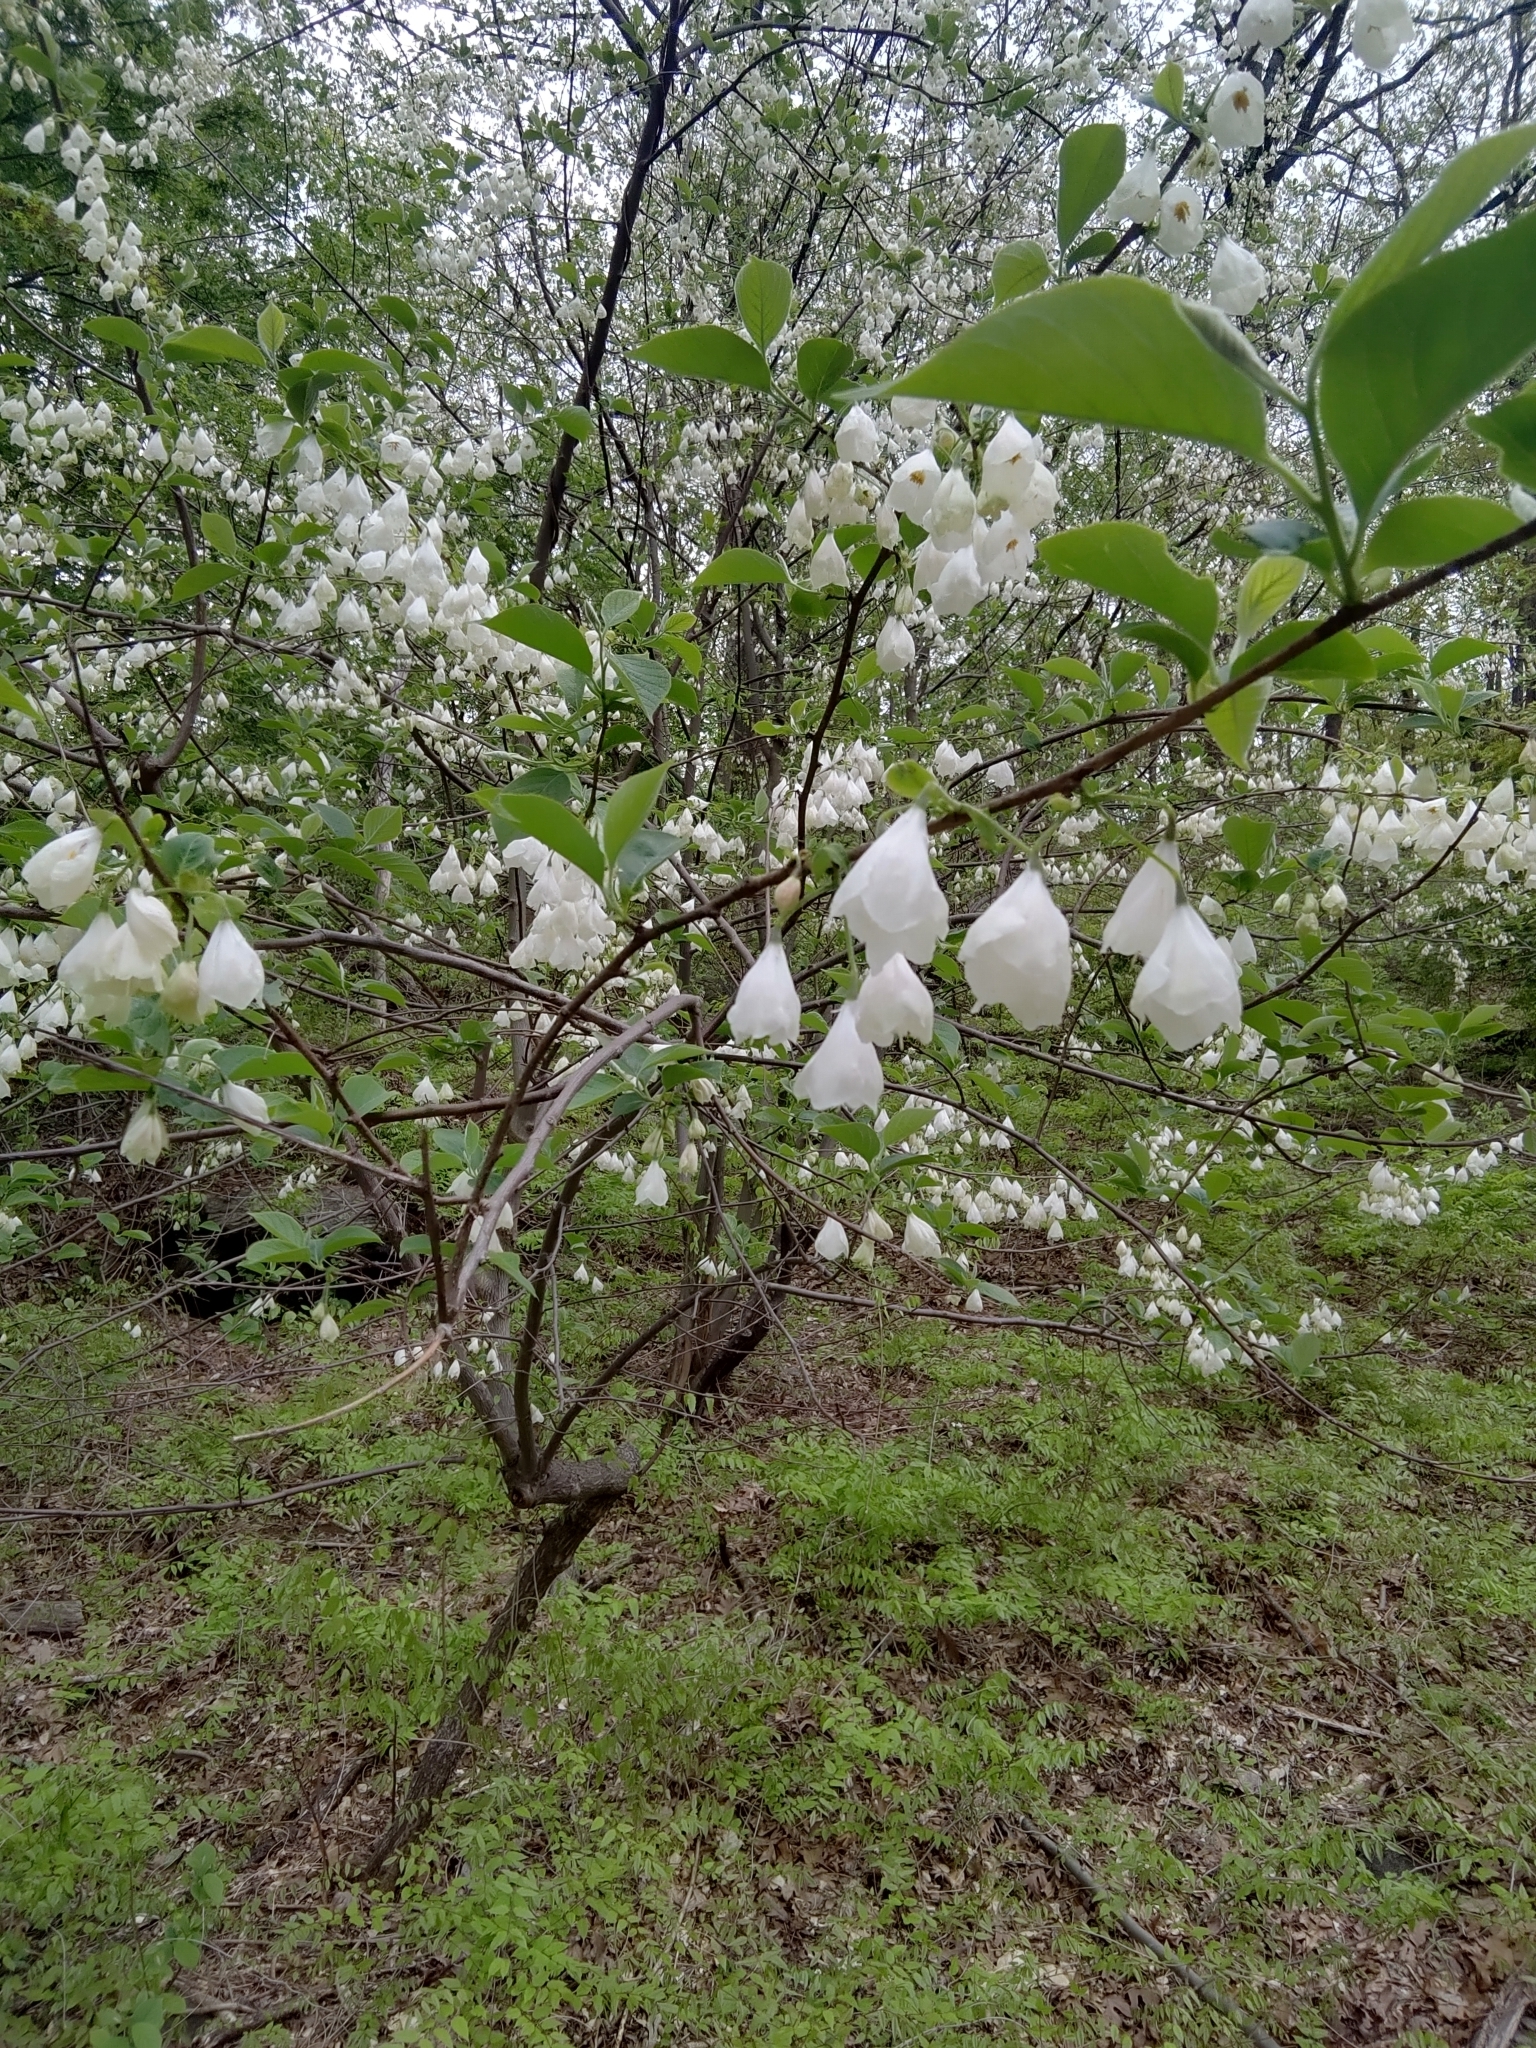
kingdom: Plantae
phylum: Tracheophyta
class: Magnoliopsida
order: Ericales
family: Styracaceae
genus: Halesia
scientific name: Halesia carolina
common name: Carolina silverbell
